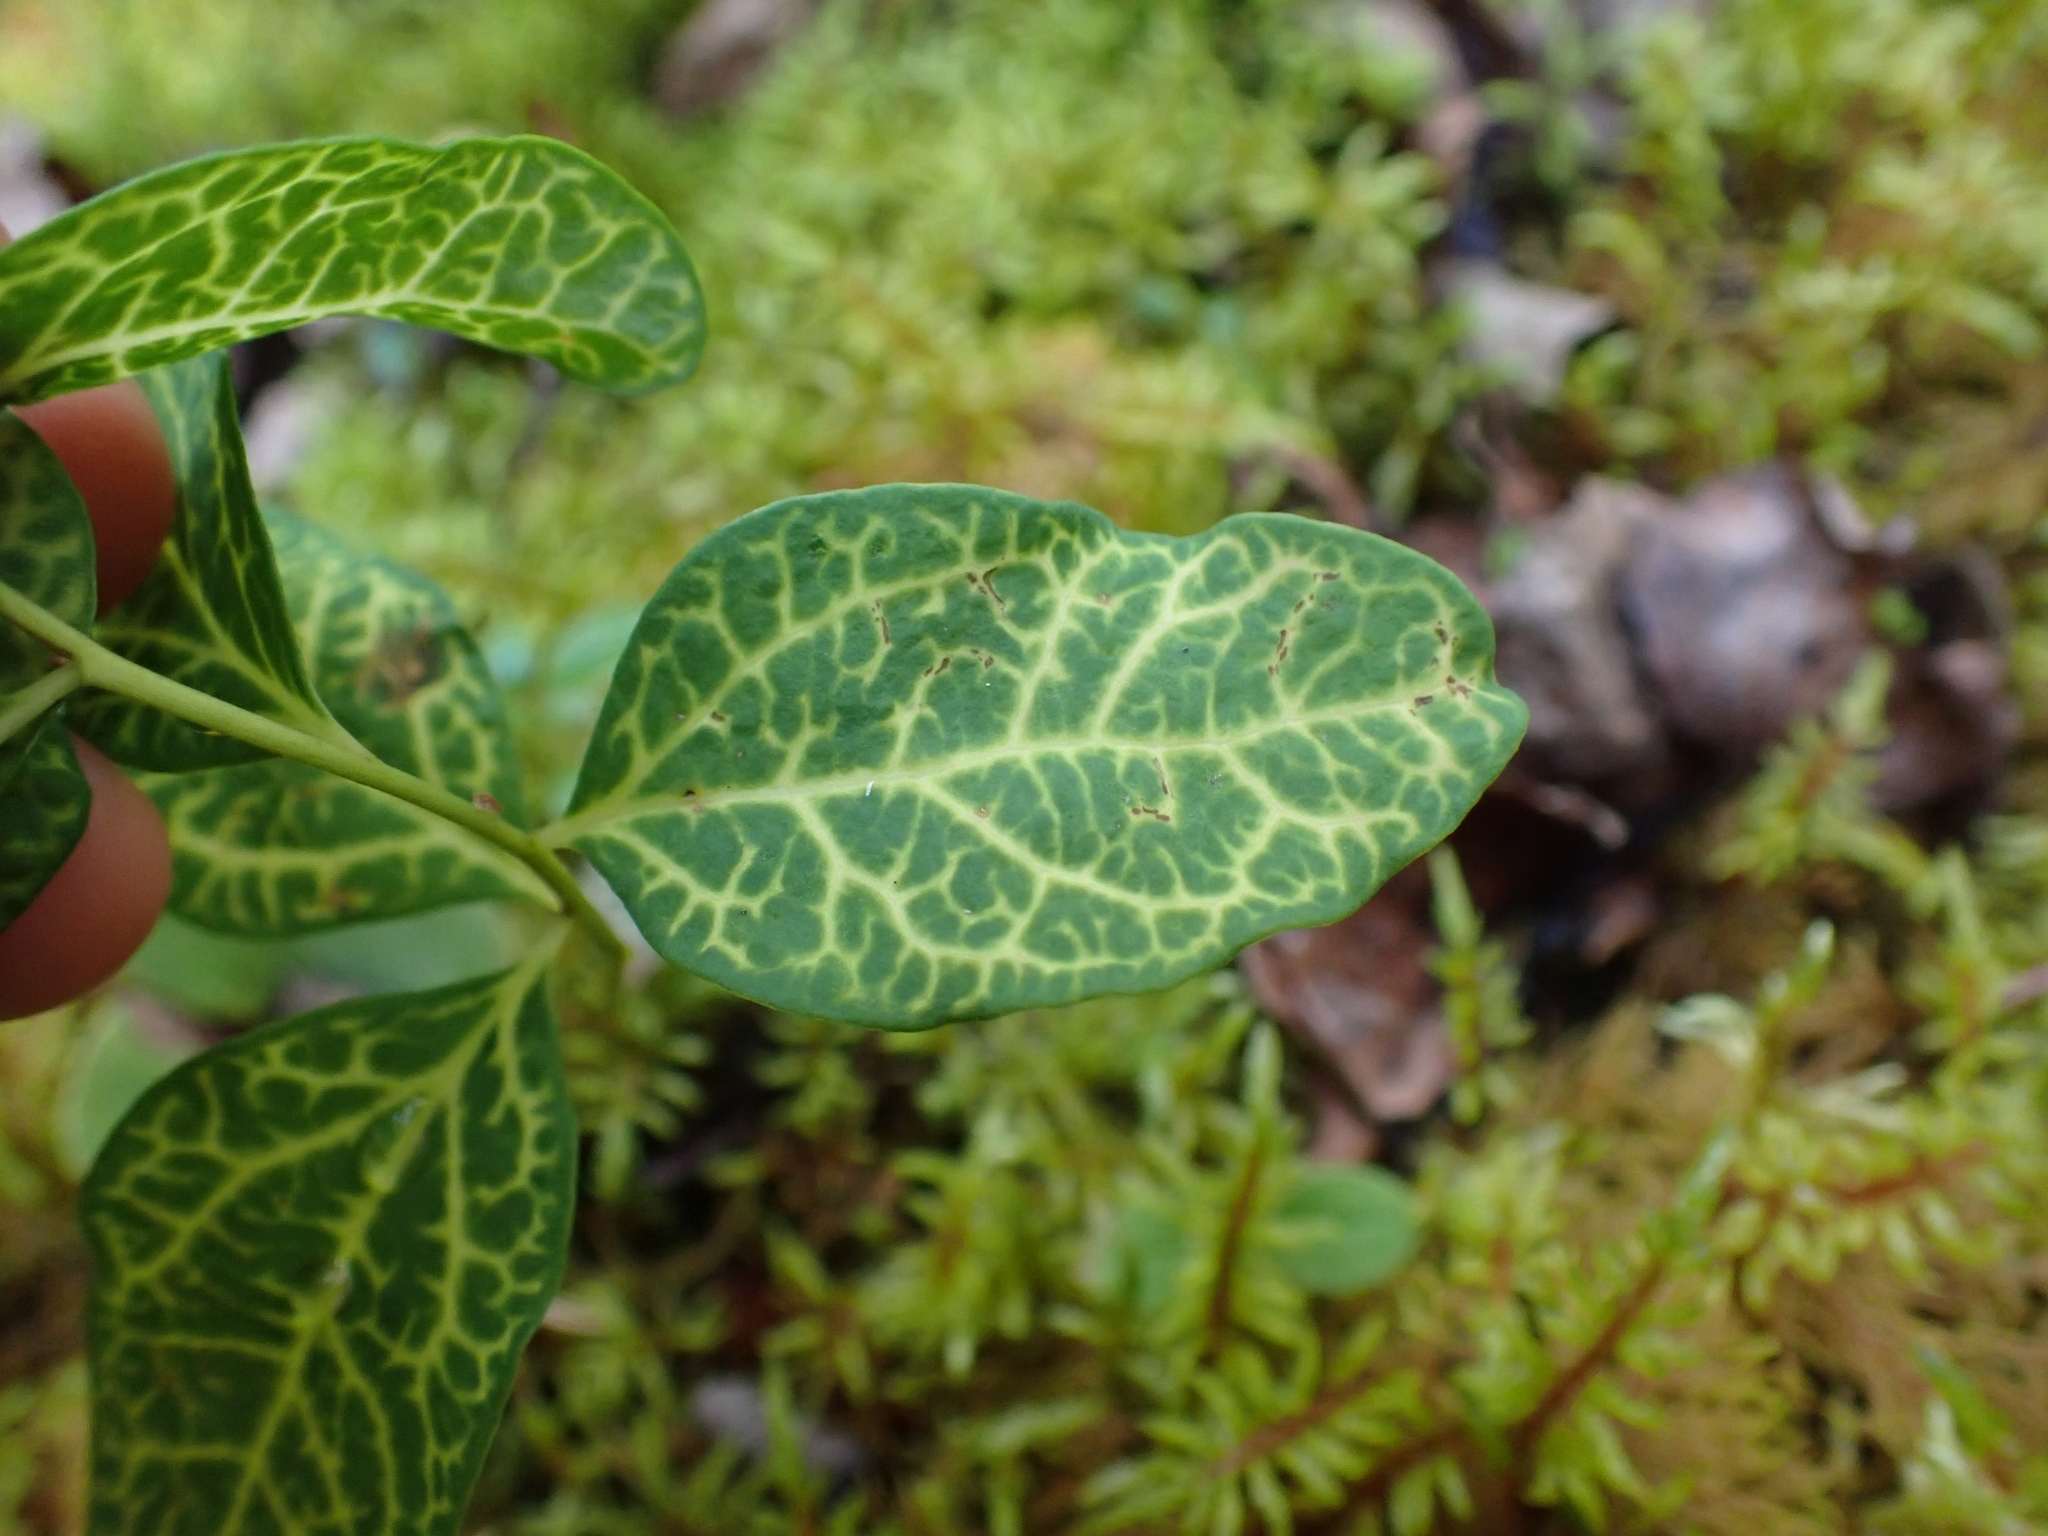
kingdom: Plantae
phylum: Tracheophyta
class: Magnoliopsida
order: Santalales
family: Comandraceae
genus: Geocaulon
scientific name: Geocaulon lividum
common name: Earthberry
